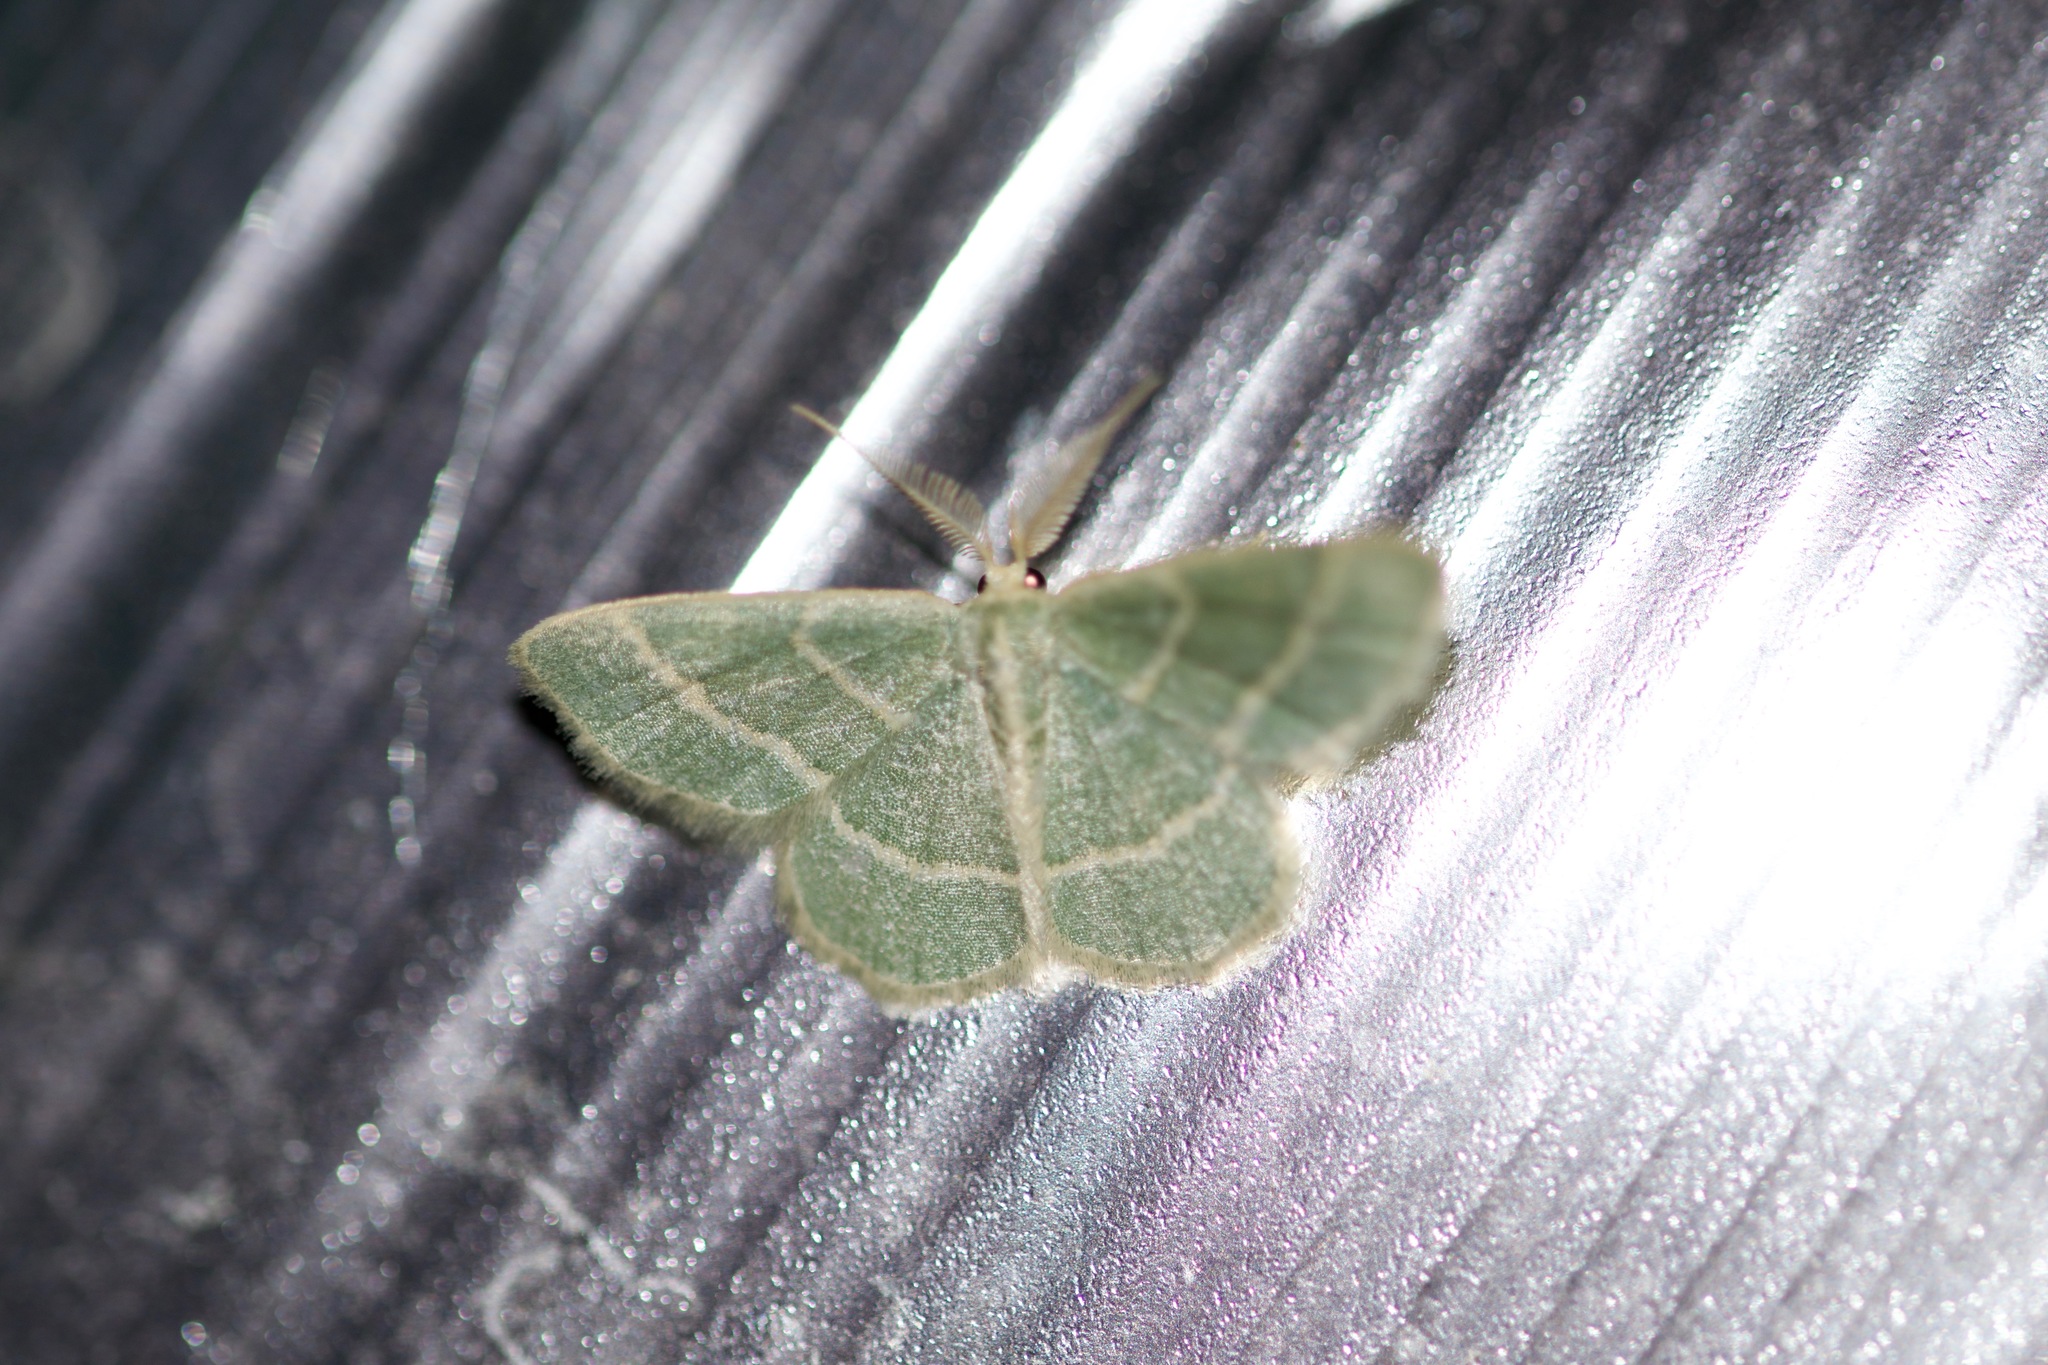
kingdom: Animalia
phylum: Arthropoda
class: Insecta
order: Lepidoptera
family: Geometridae
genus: Chlorochlamys
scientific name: Chlorochlamys chloroleucaria
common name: Blackberry looper
